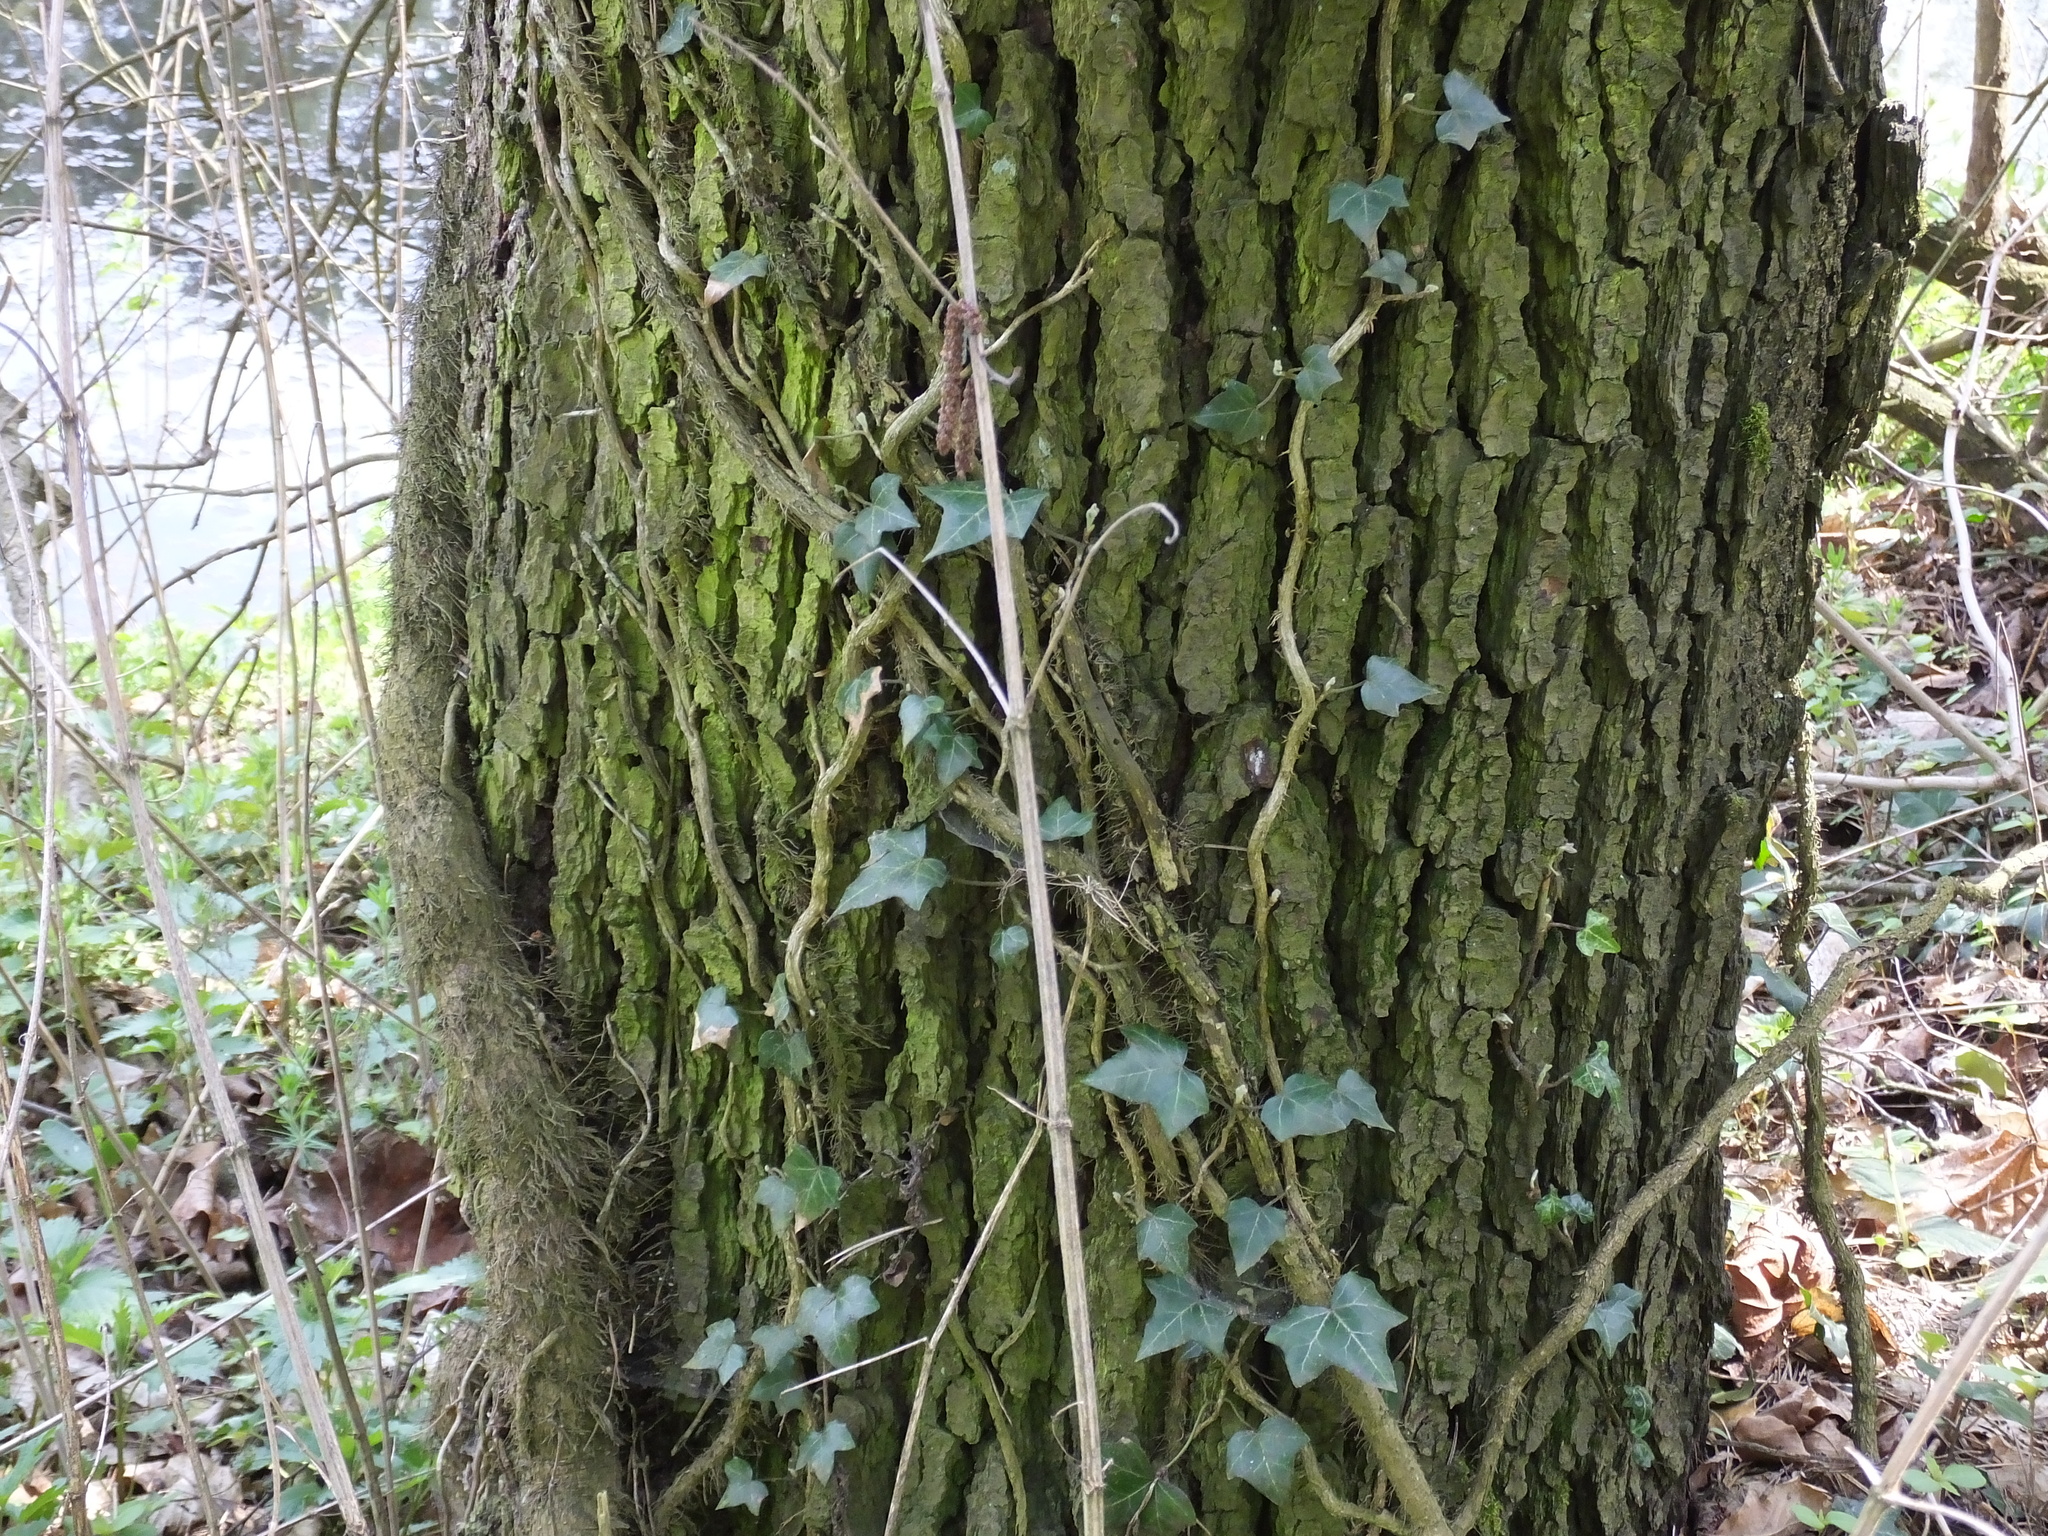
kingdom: Plantae
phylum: Tracheophyta
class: Magnoliopsida
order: Apiales
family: Araliaceae
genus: Hedera
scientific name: Hedera helix
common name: Ivy
